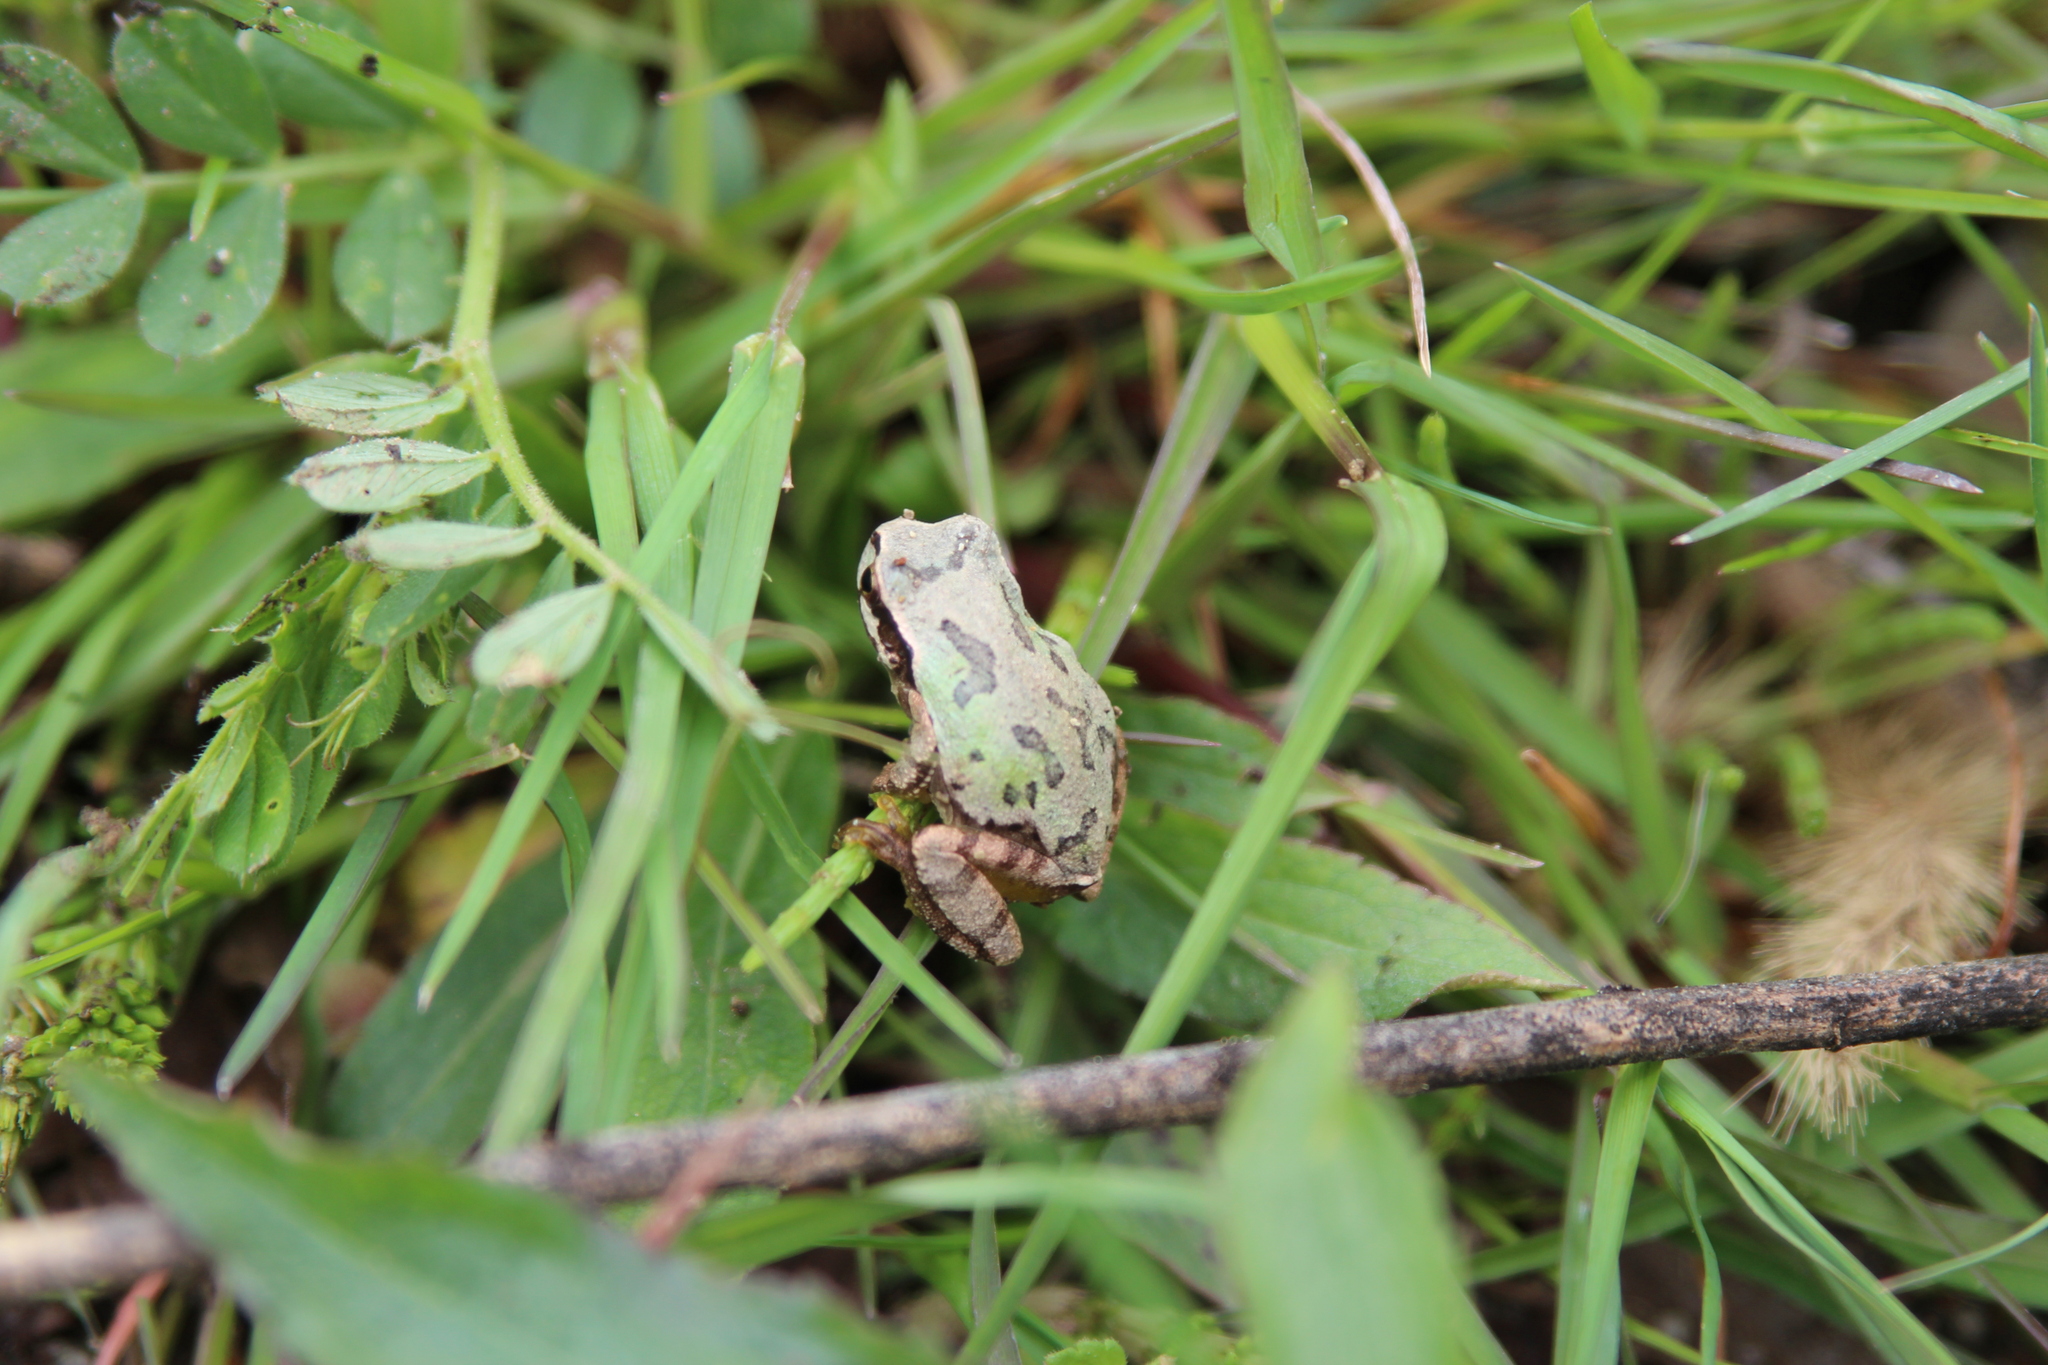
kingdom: Animalia
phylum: Chordata
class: Amphibia
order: Anura
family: Hylidae
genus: Dryophytes
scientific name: Dryophytes japonicus
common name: Japanese treefrog
